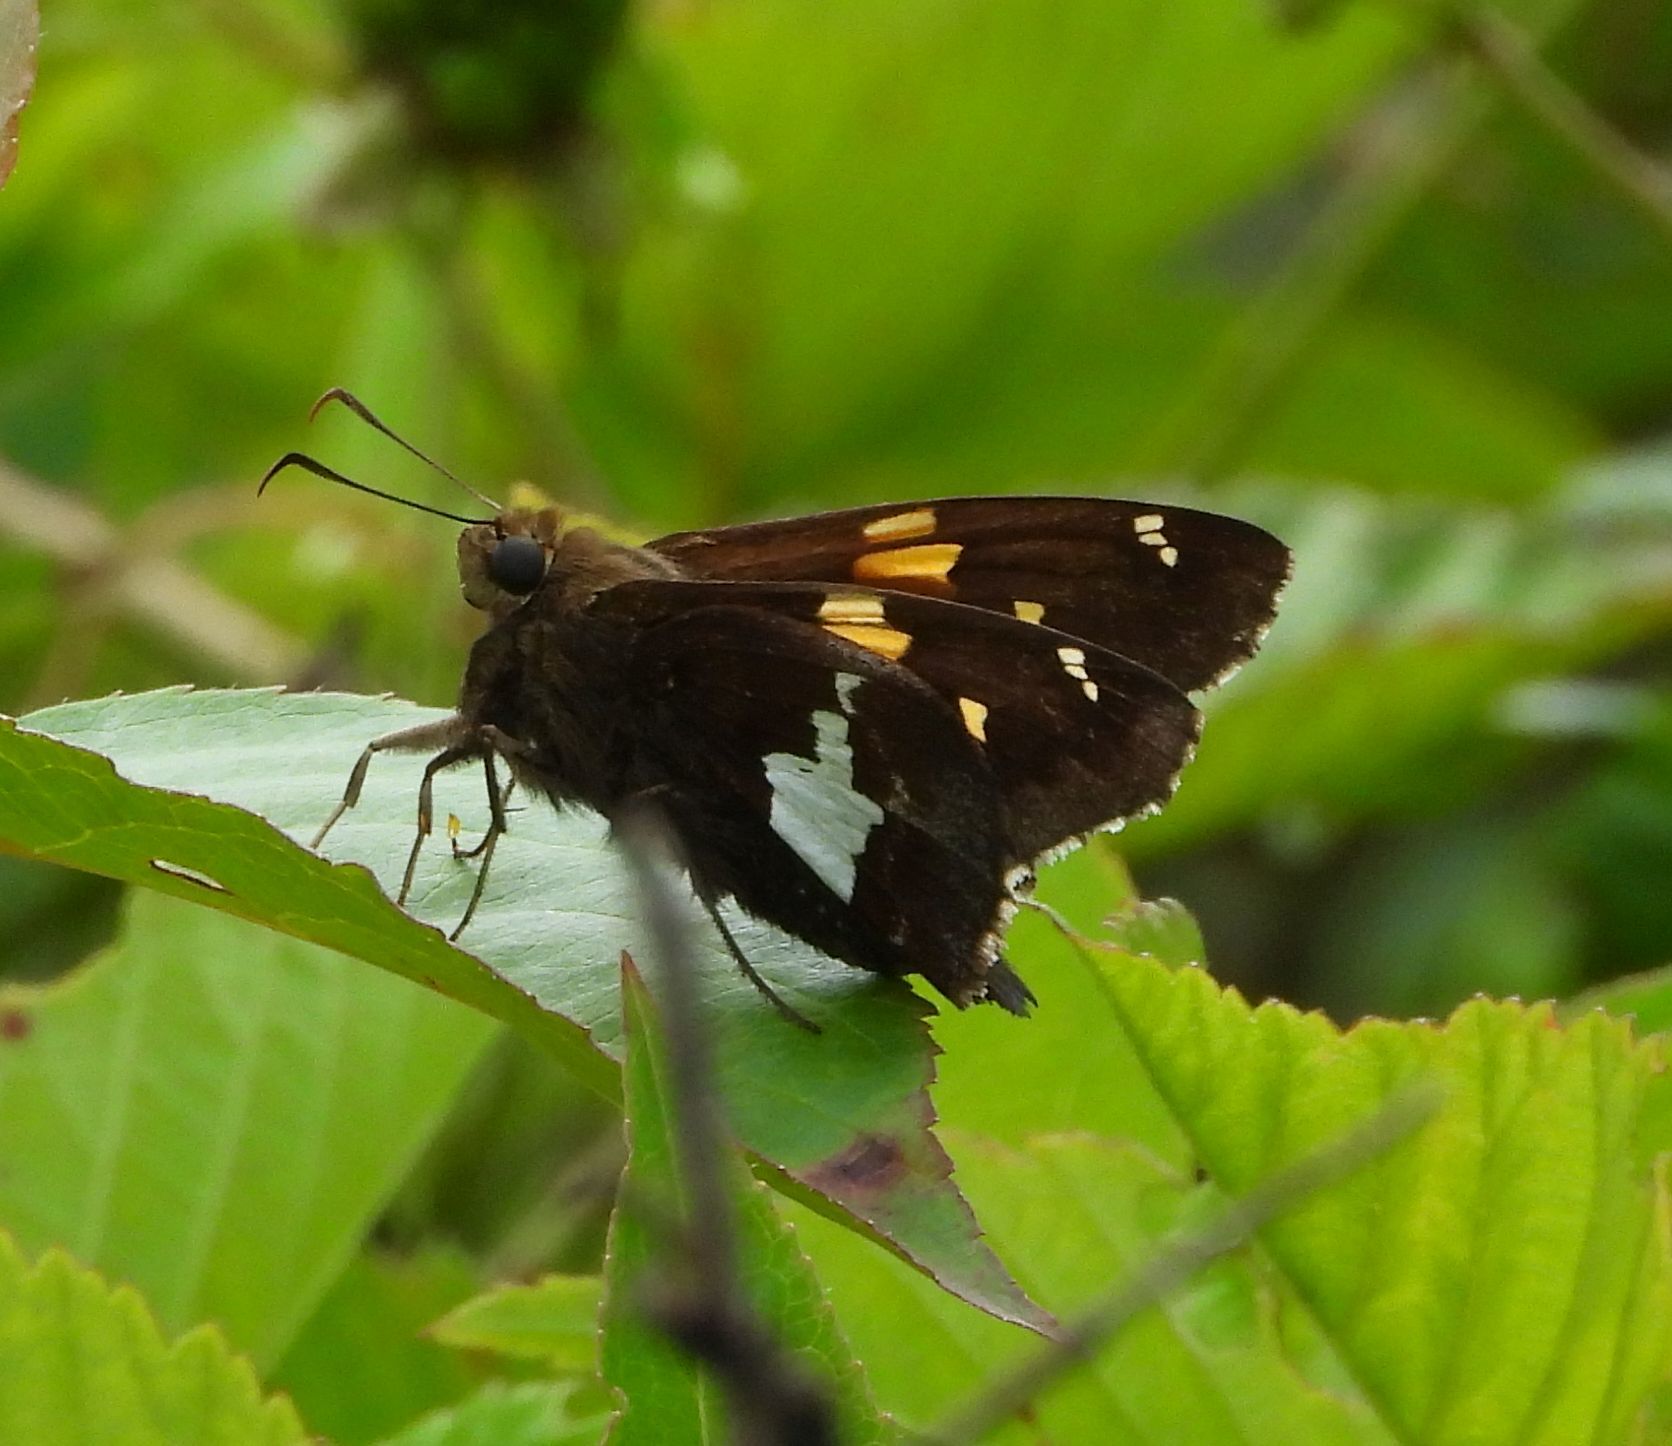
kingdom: Animalia
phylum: Arthropoda
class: Insecta
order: Lepidoptera
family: Hesperiidae
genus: Epargyreus
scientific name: Epargyreus clarus
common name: Silver-spotted skipper
